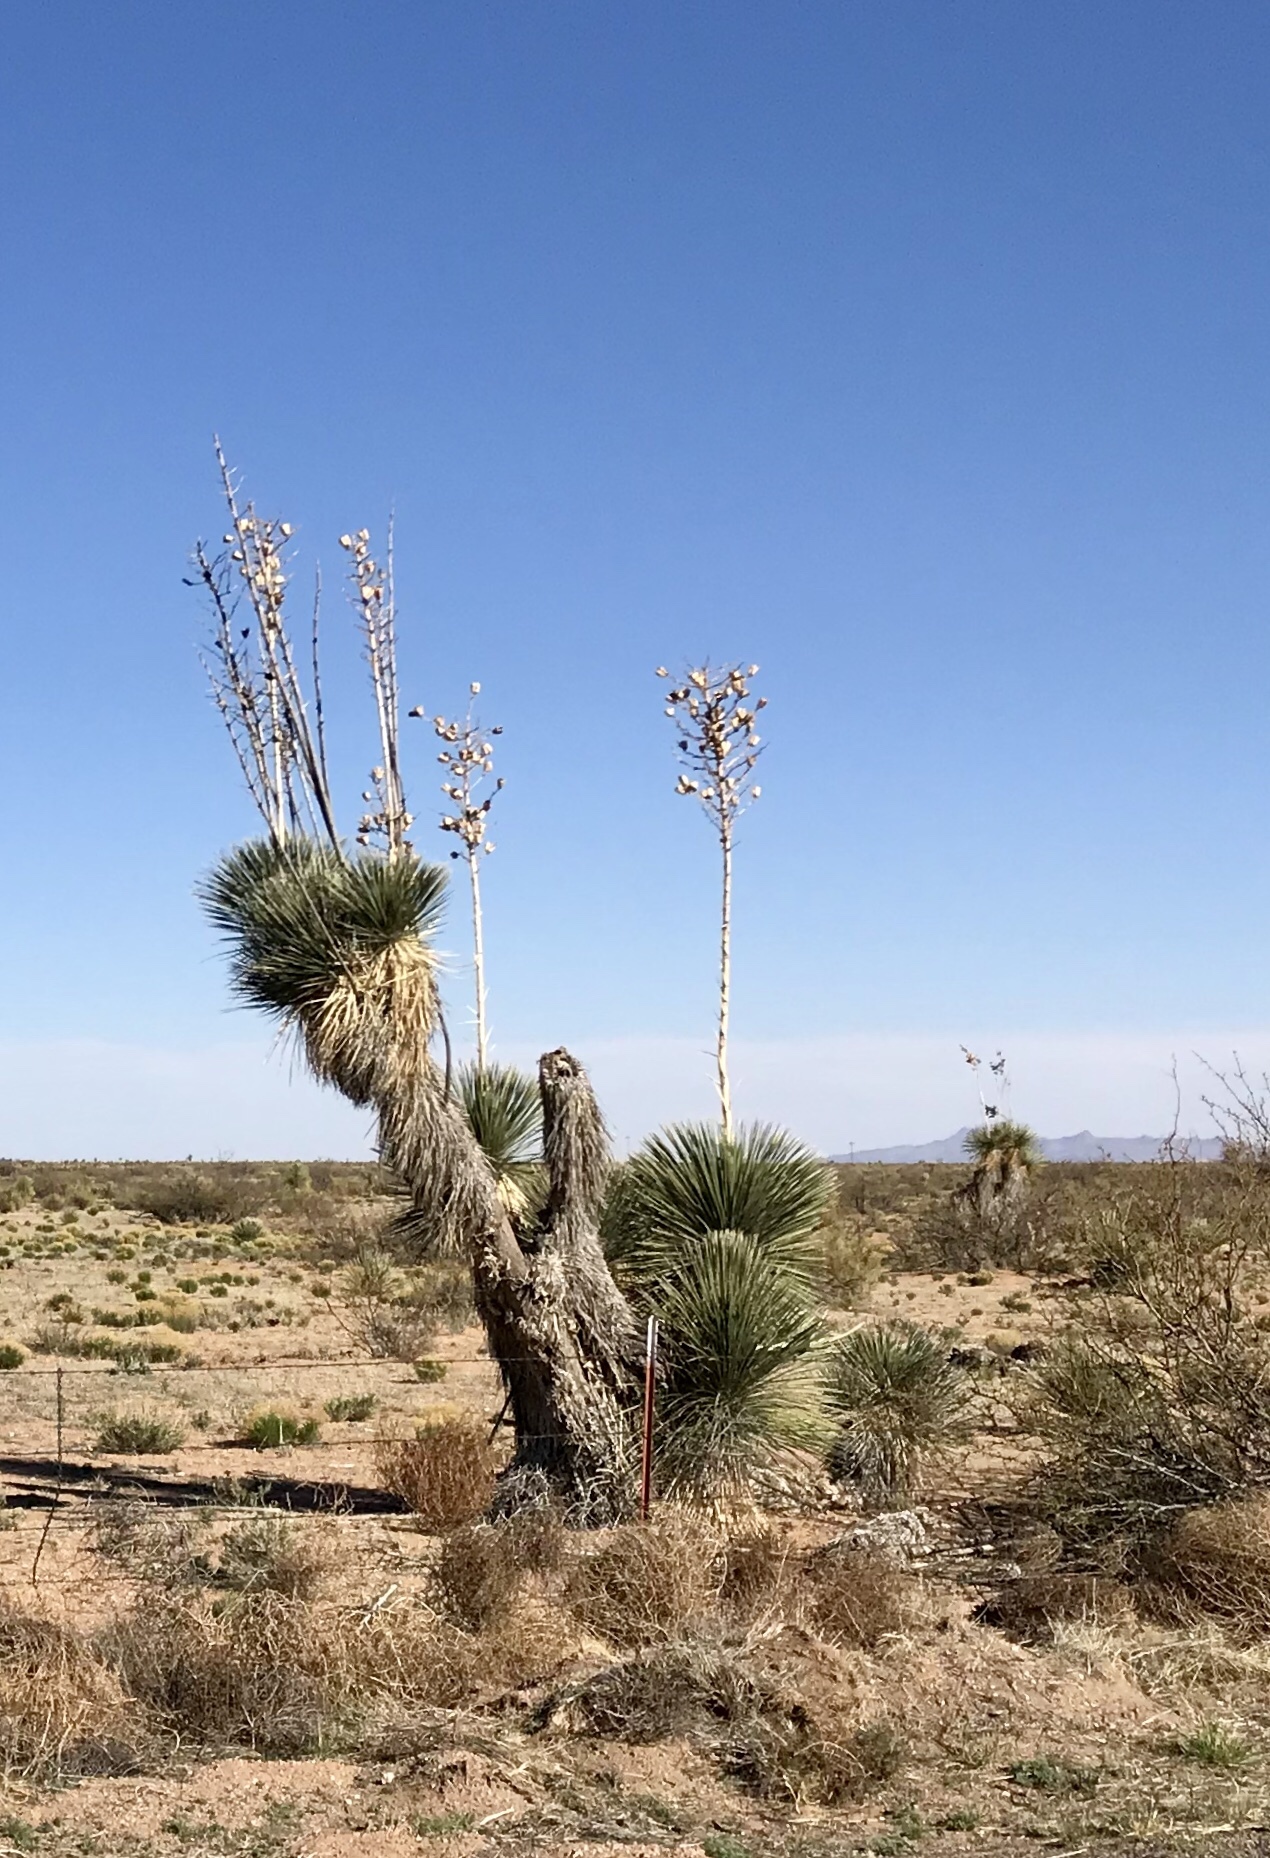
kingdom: Plantae
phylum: Tracheophyta
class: Liliopsida
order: Asparagales
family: Asparagaceae
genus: Yucca
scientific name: Yucca elata
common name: Palmella
